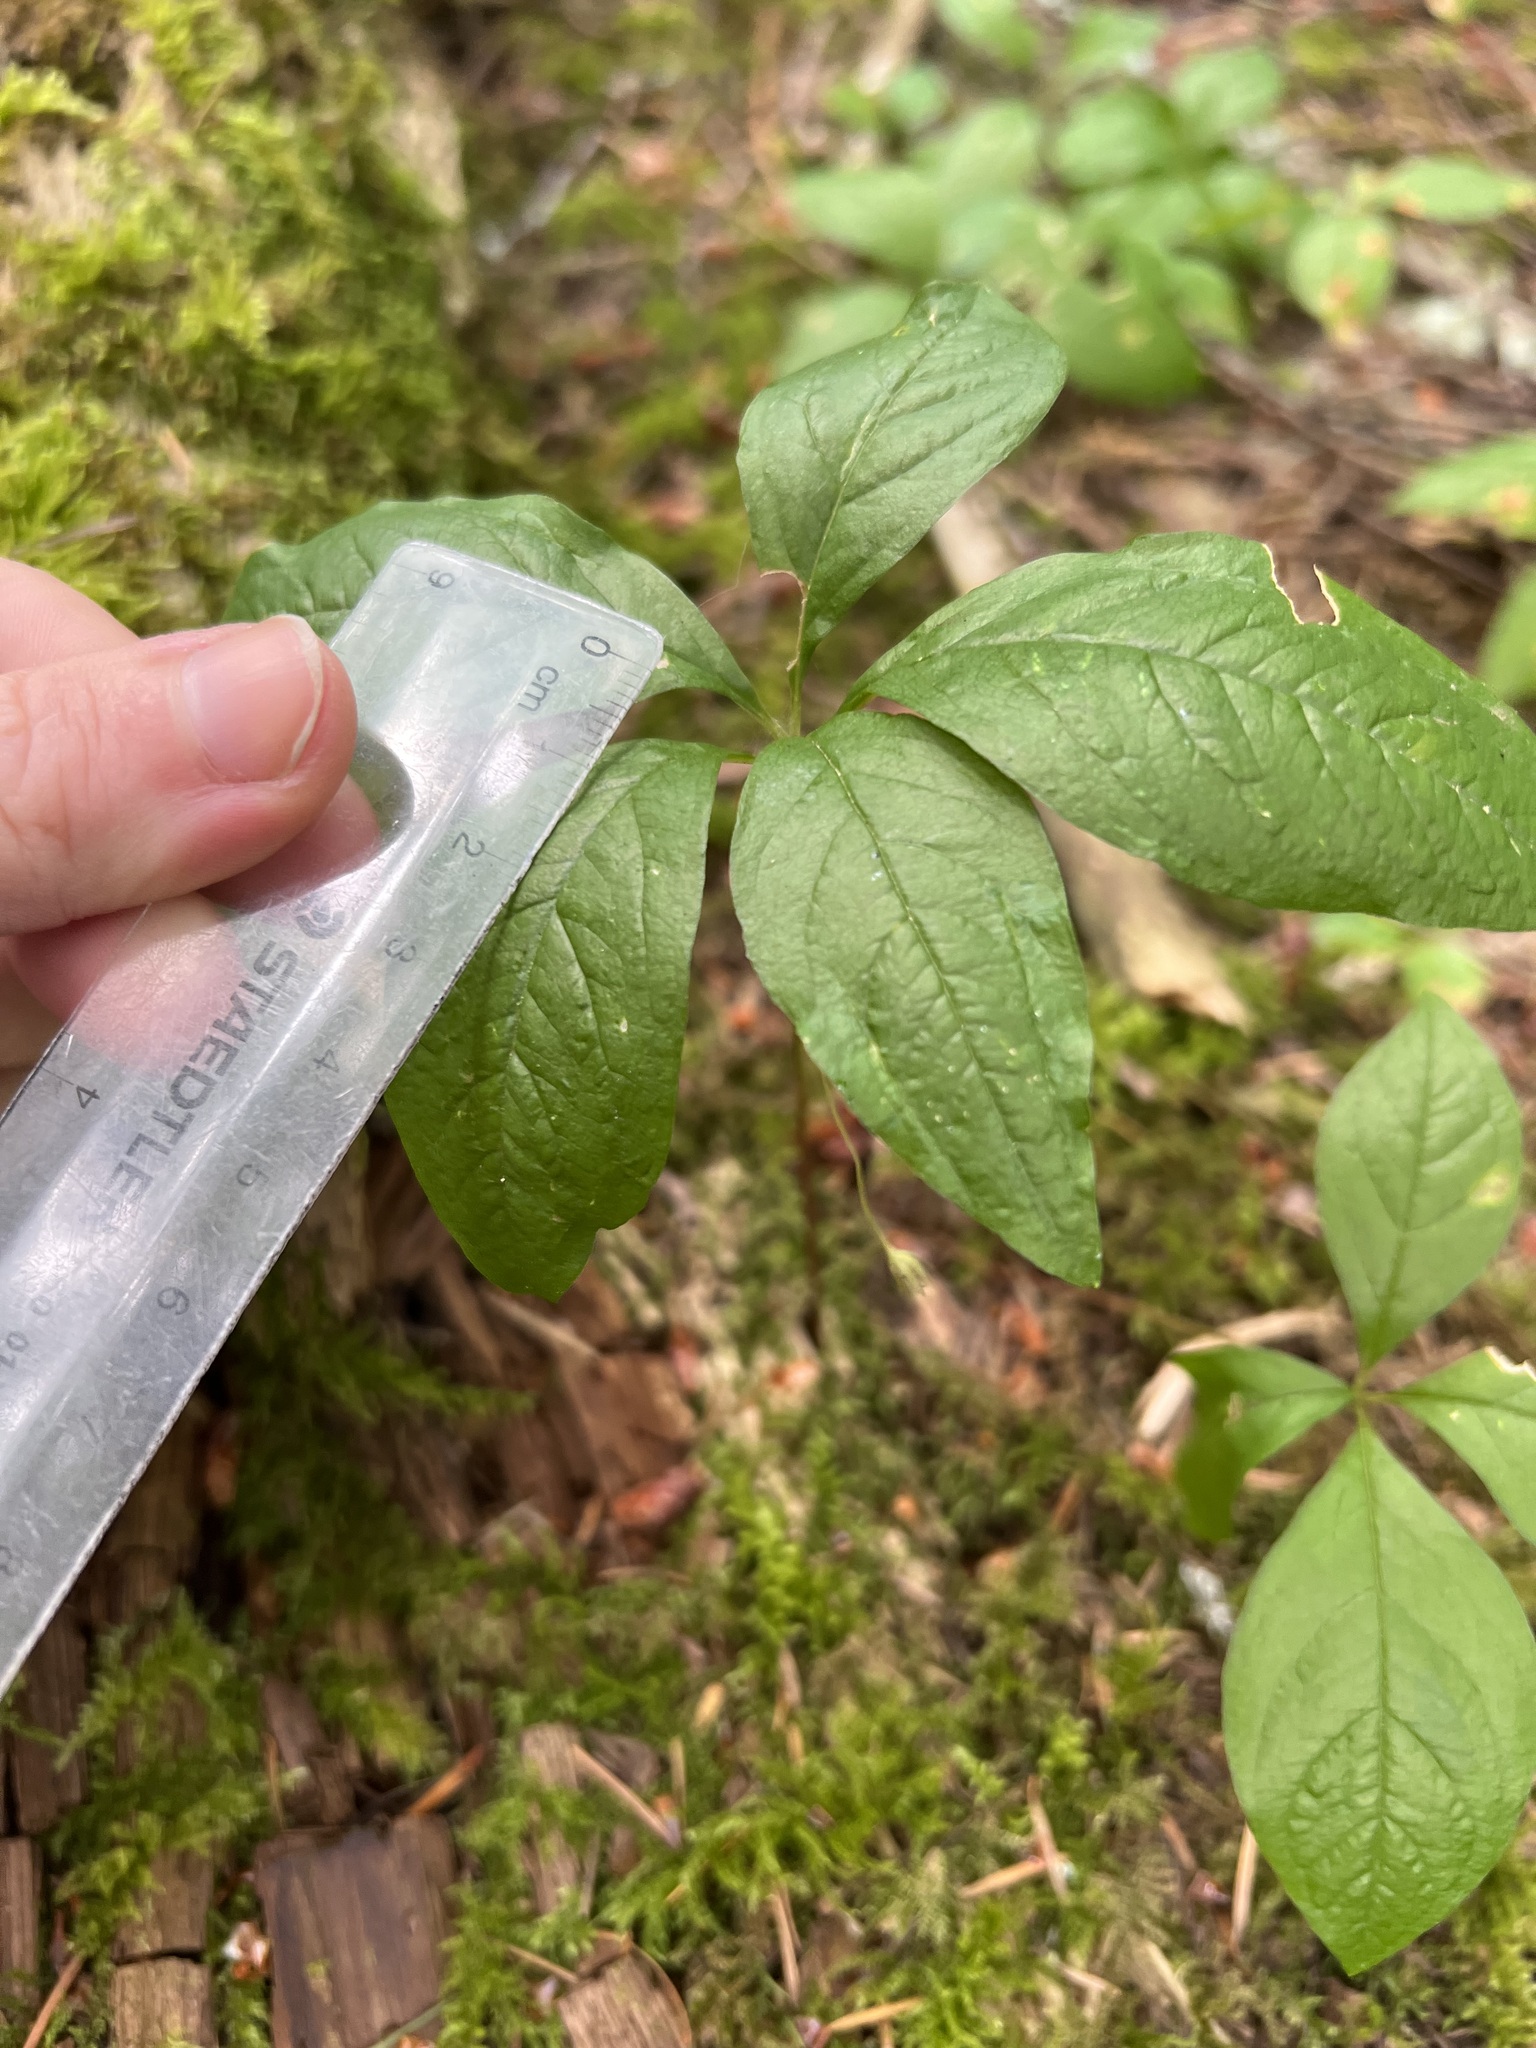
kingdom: Plantae
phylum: Tracheophyta
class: Magnoliopsida
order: Ericales
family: Primulaceae
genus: Lysimachia
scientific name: Lysimachia latifolia
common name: Pacific starflower
